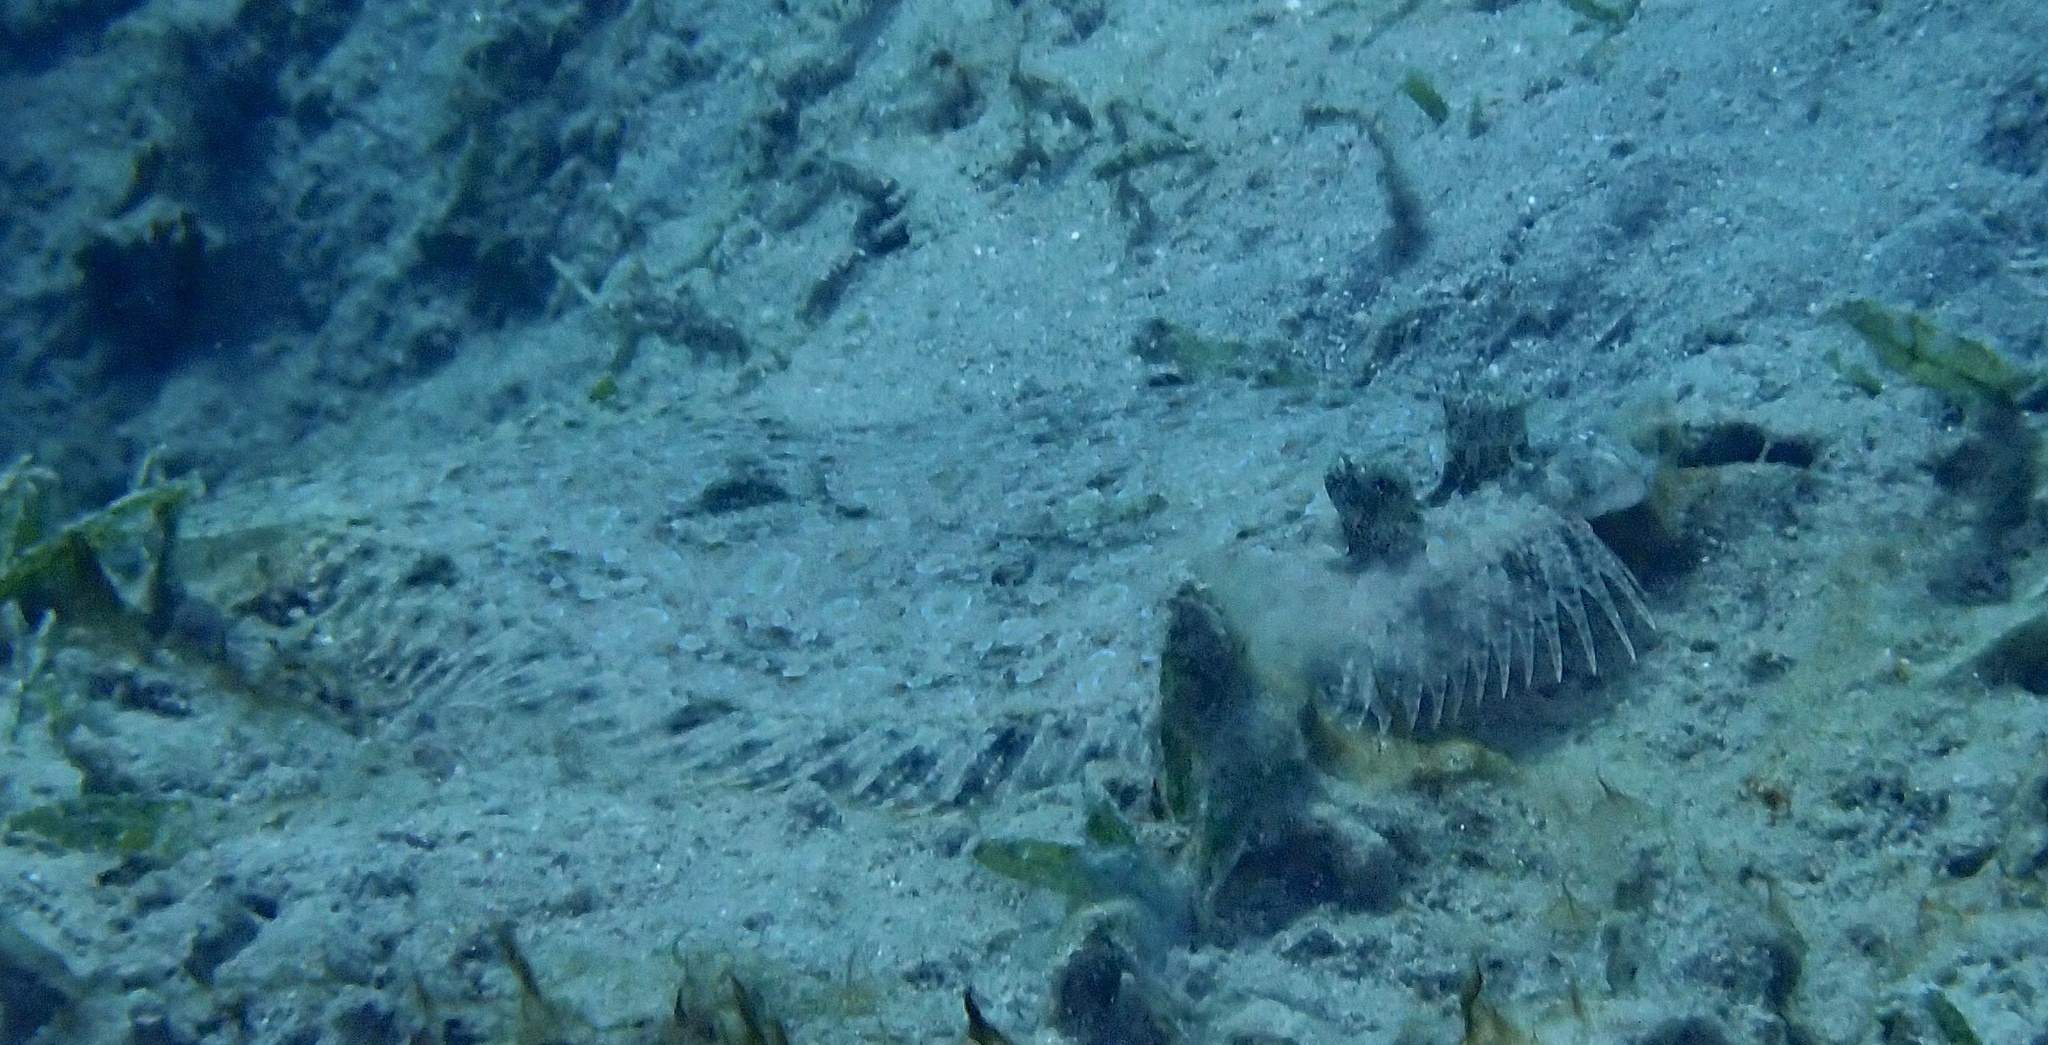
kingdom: Animalia
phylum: Chordata
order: Pleuronectiformes
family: Bothidae
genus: Bothus
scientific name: Bothus pantherinus
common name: Leopard flounder
